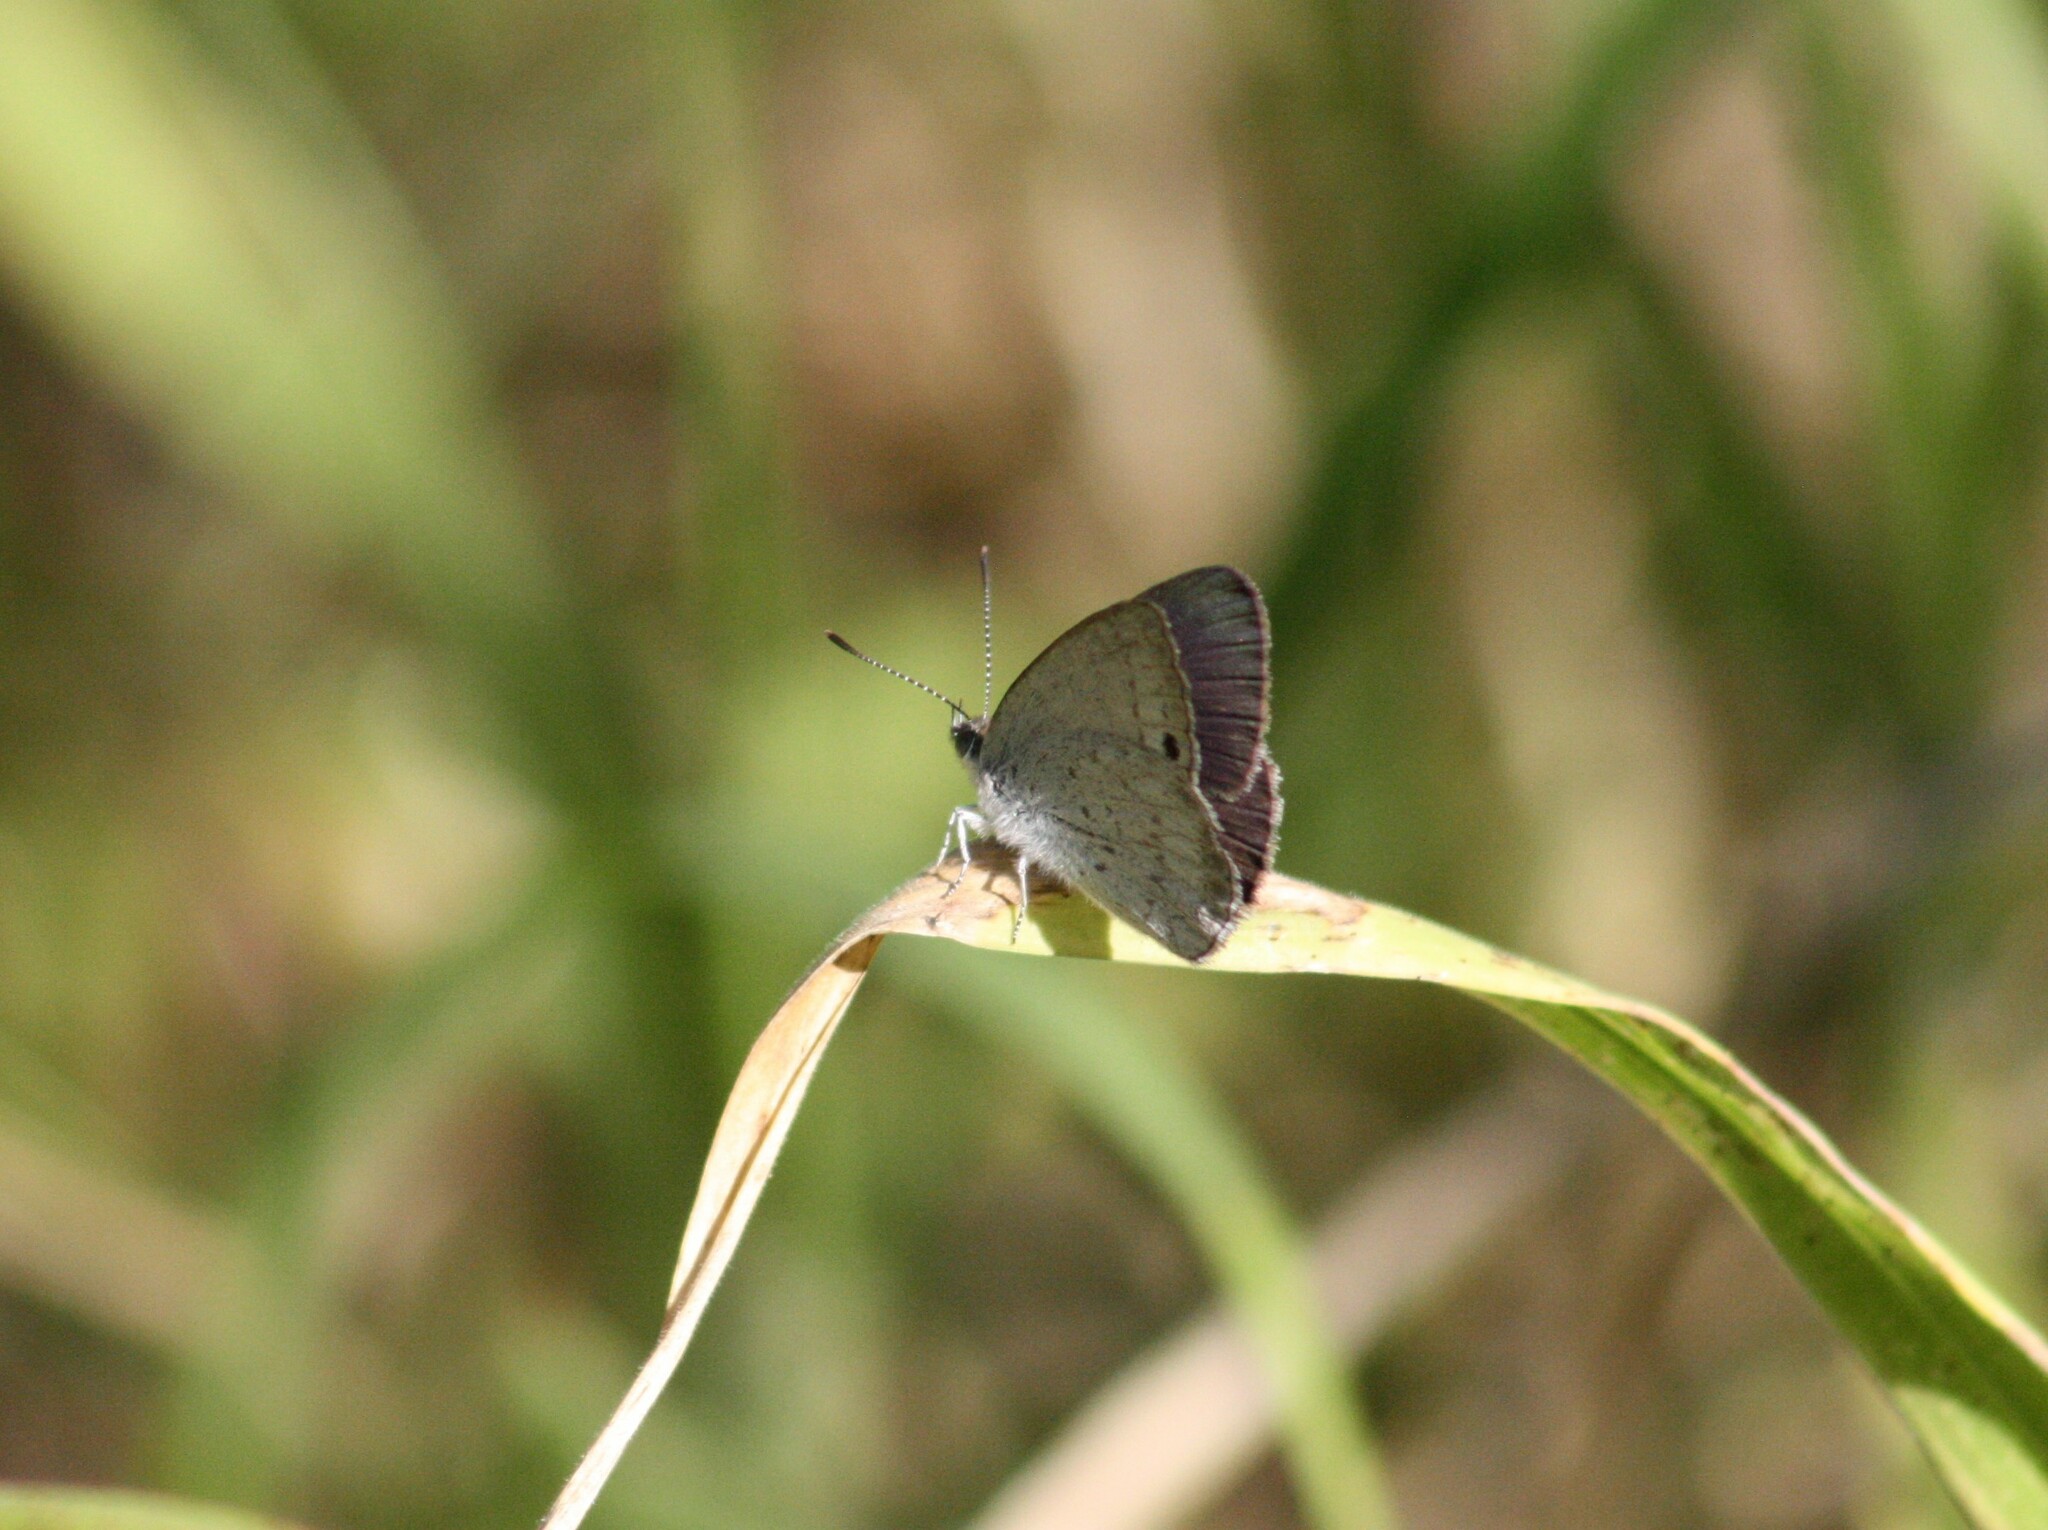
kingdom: Animalia
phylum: Arthropoda
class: Insecta
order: Lepidoptera
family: Lycaenidae
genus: Candalides
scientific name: Candalides
